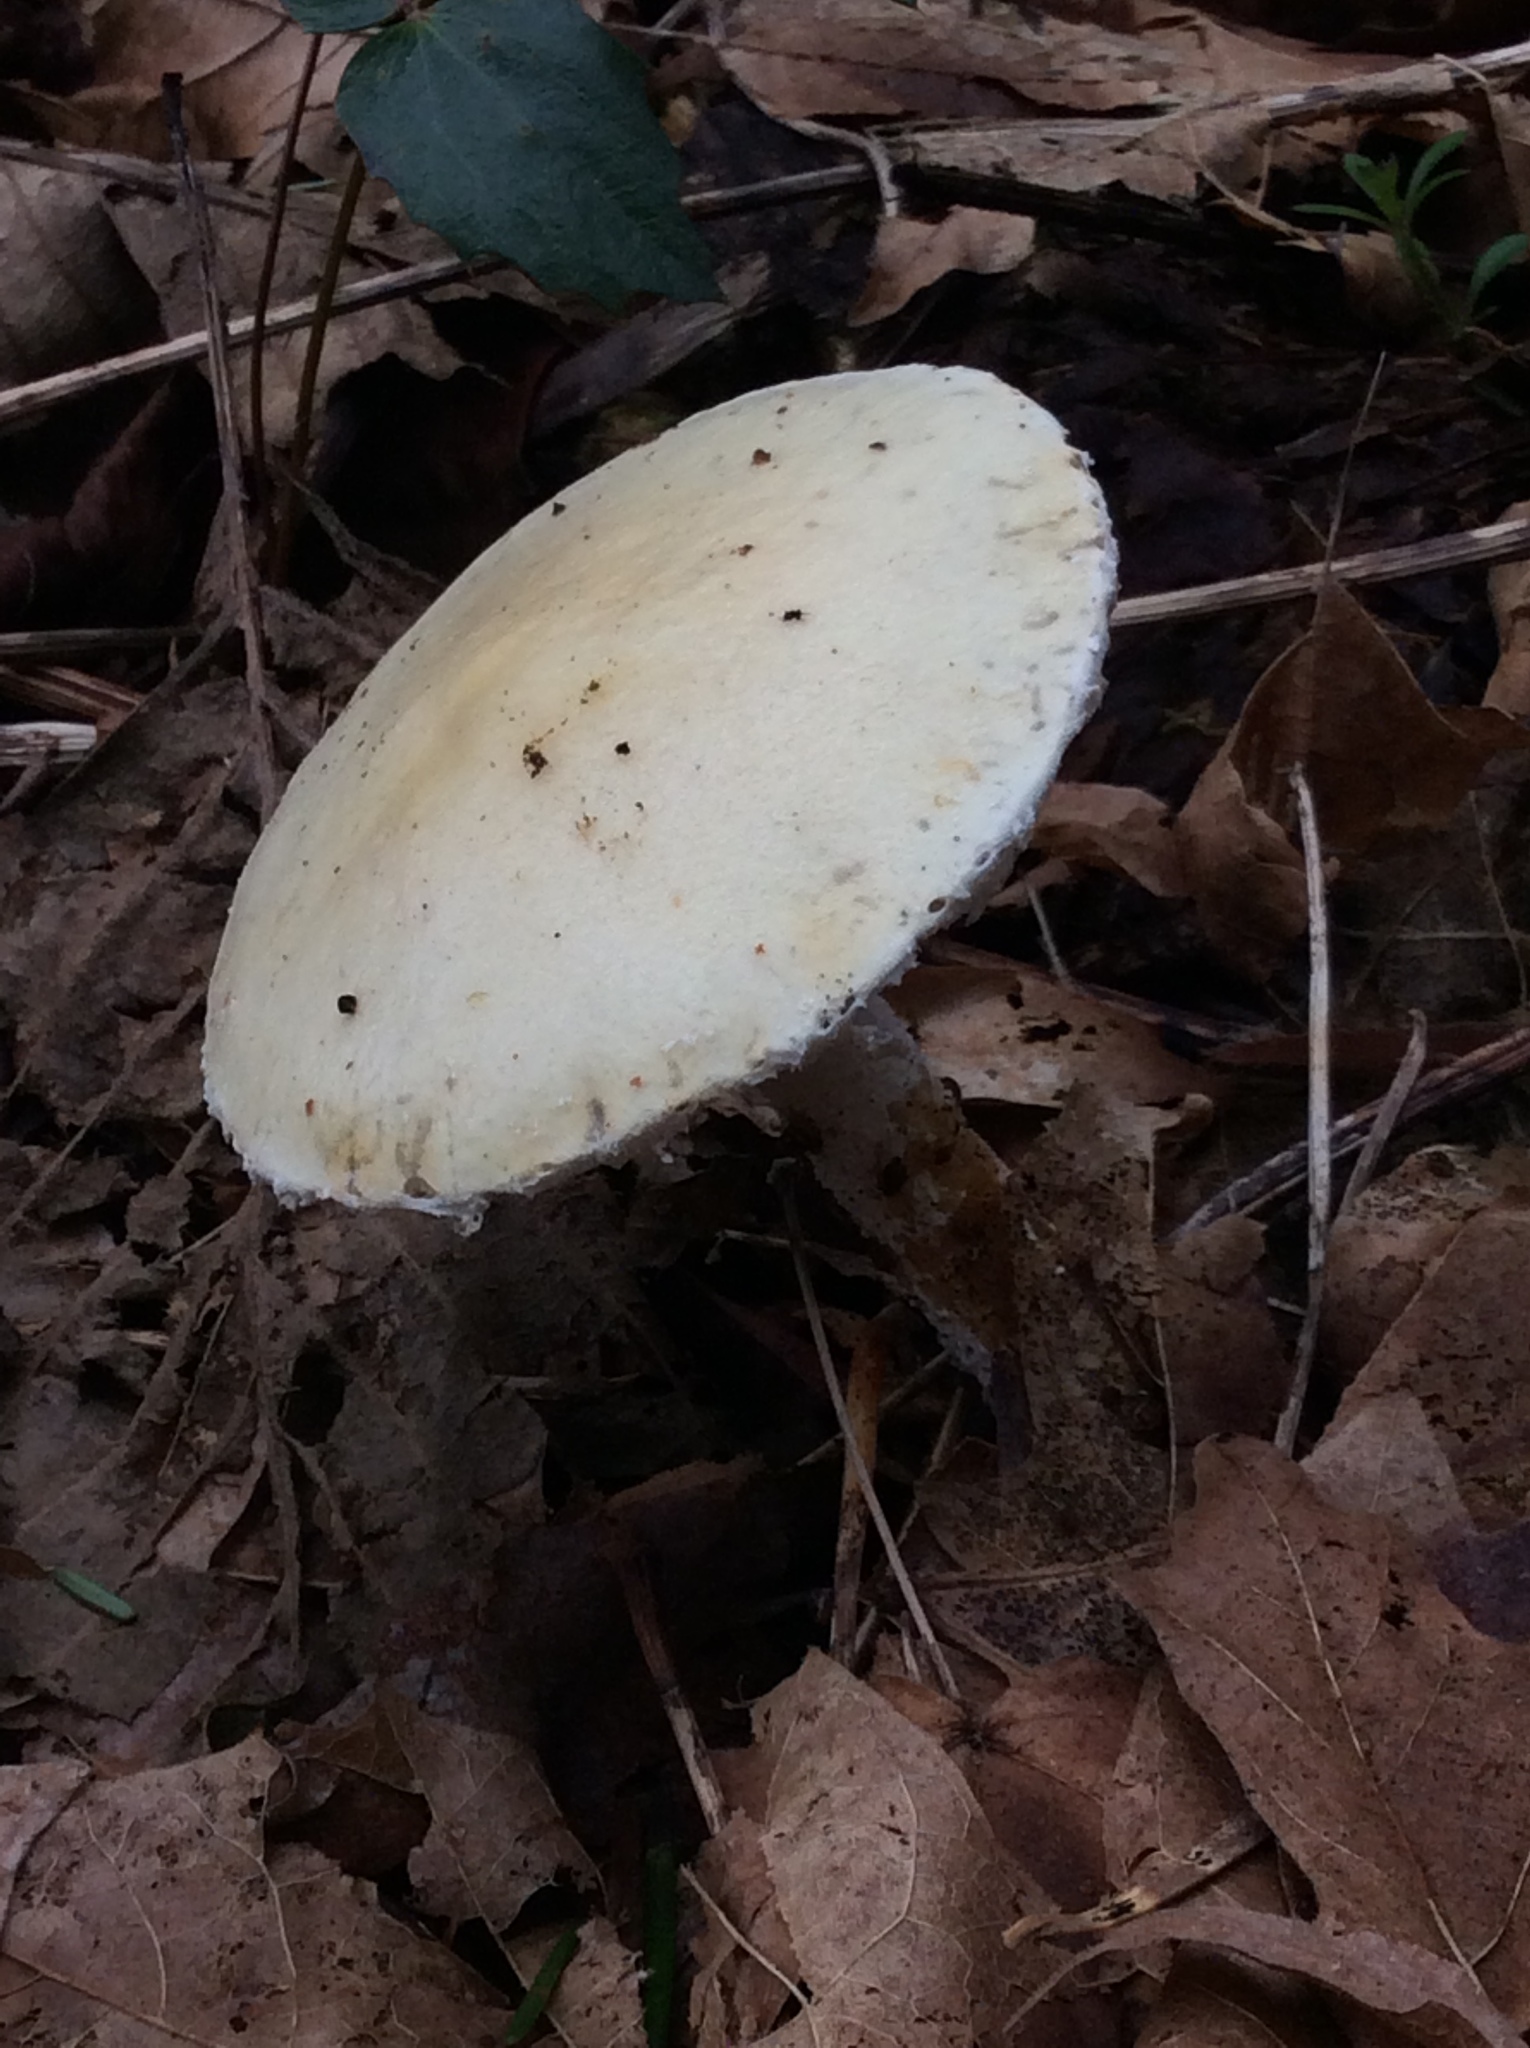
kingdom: Fungi
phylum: Basidiomycota
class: Agaricomycetes
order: Agaricales
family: Strophariaceae
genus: Stropharia
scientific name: Stropharia ambigua
